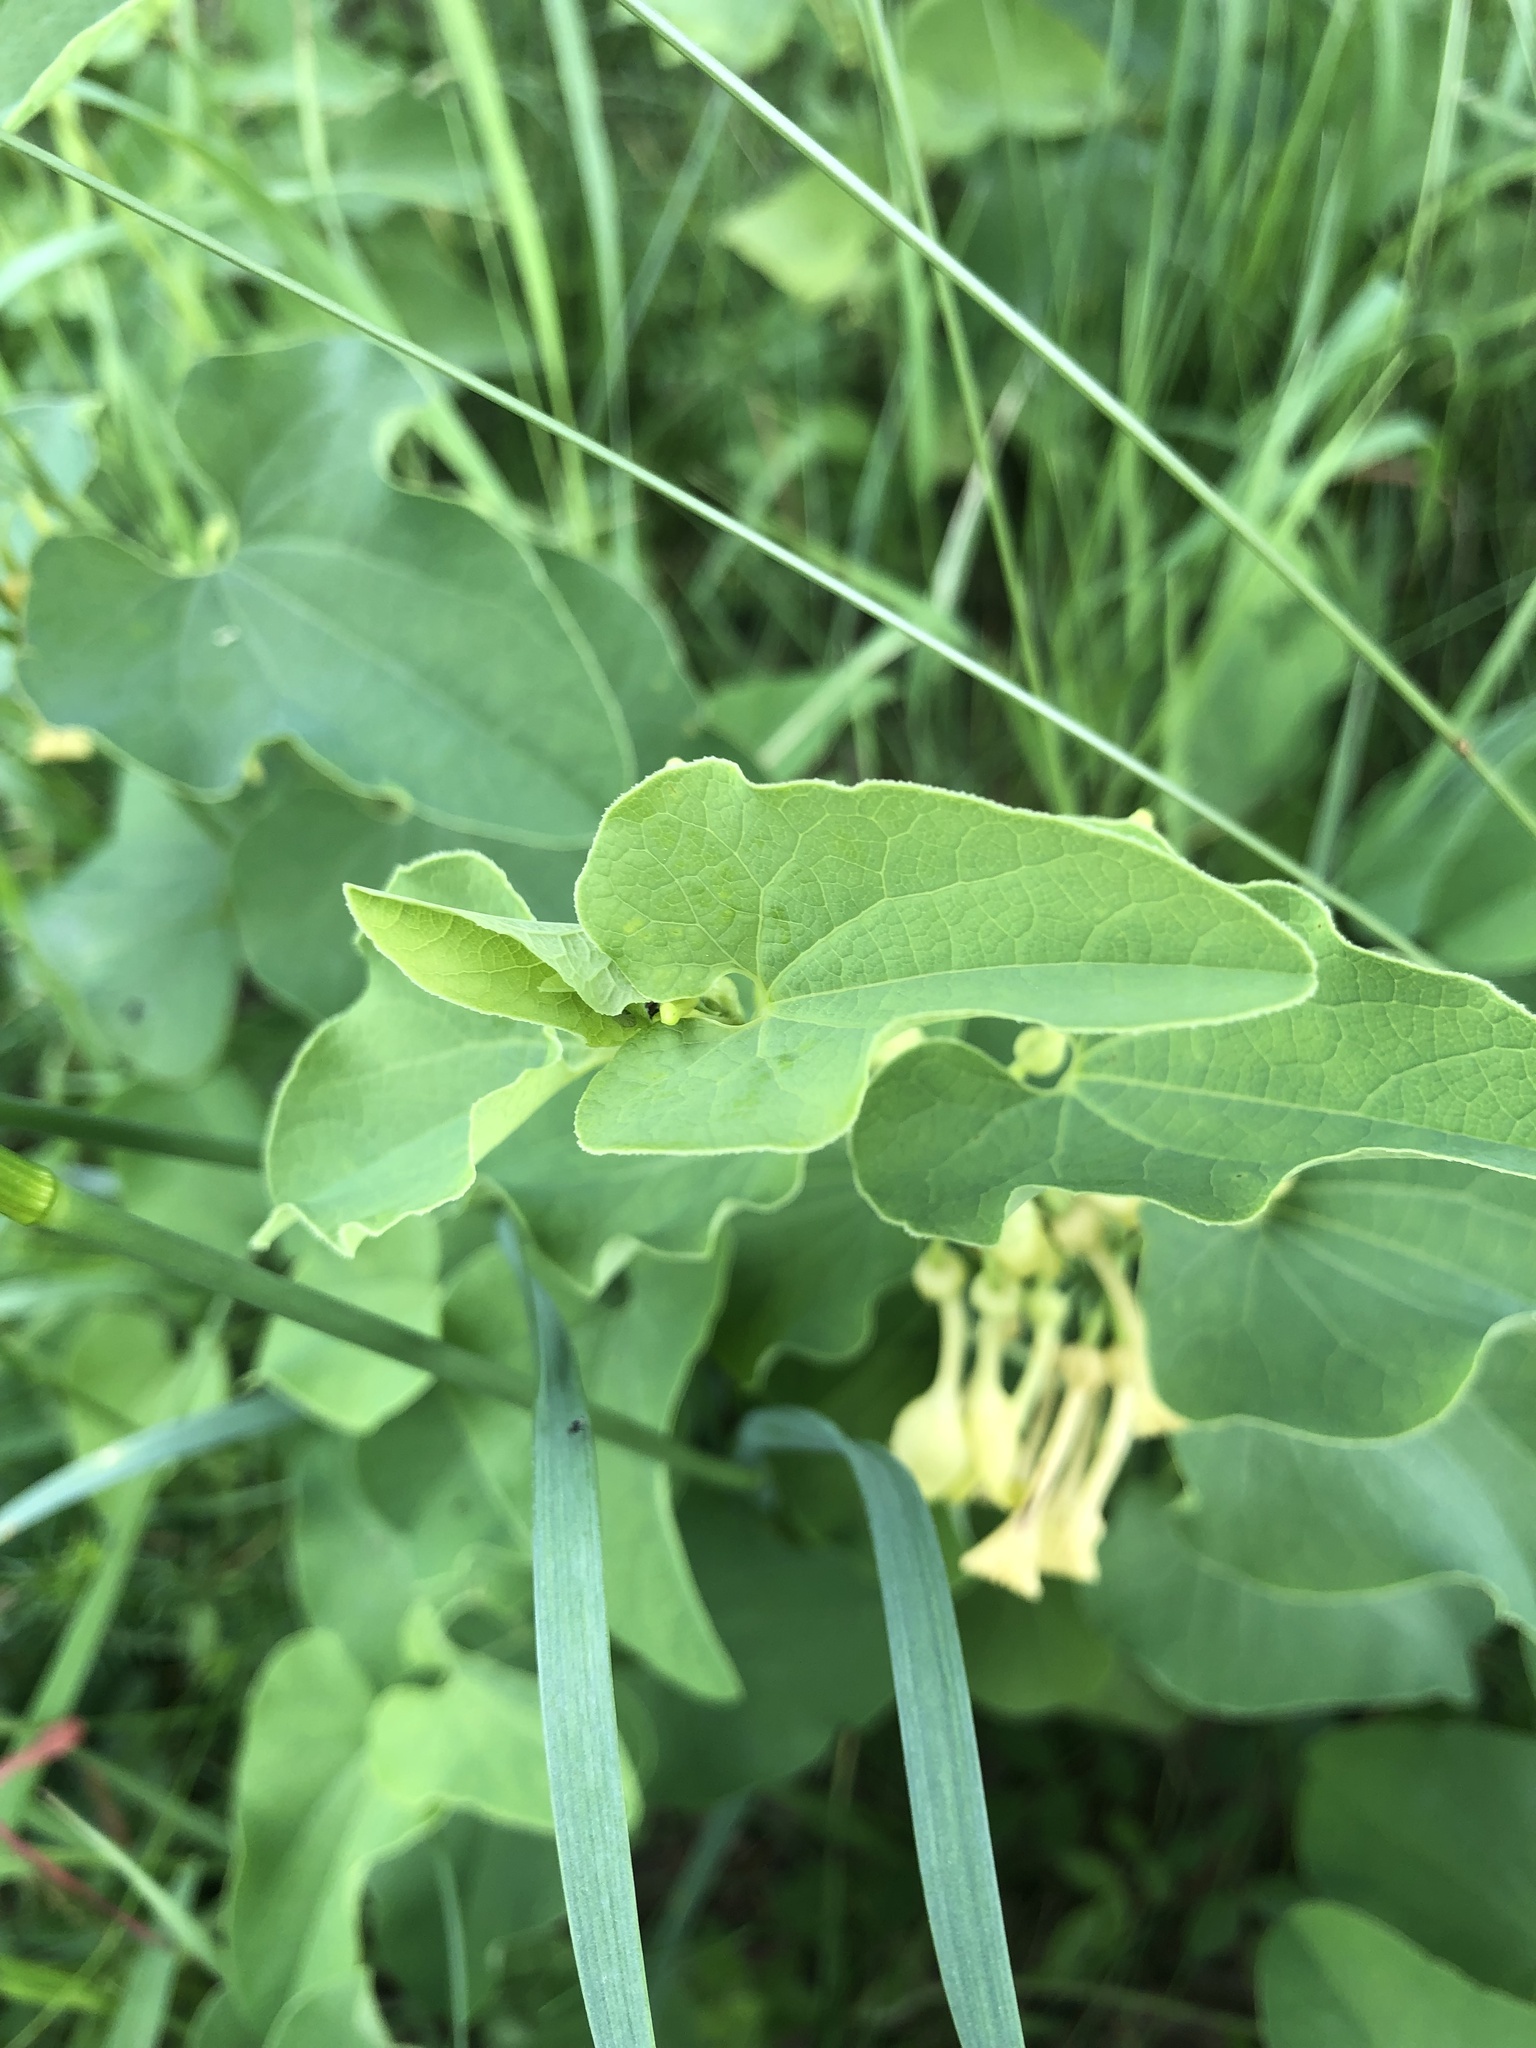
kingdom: Plantae
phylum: Tracheophyta
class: Magnoliopsida
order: Piperales
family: Aristolochiaceae
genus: Aristolochia
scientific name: Aristolochia clematitis
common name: Birthwort
